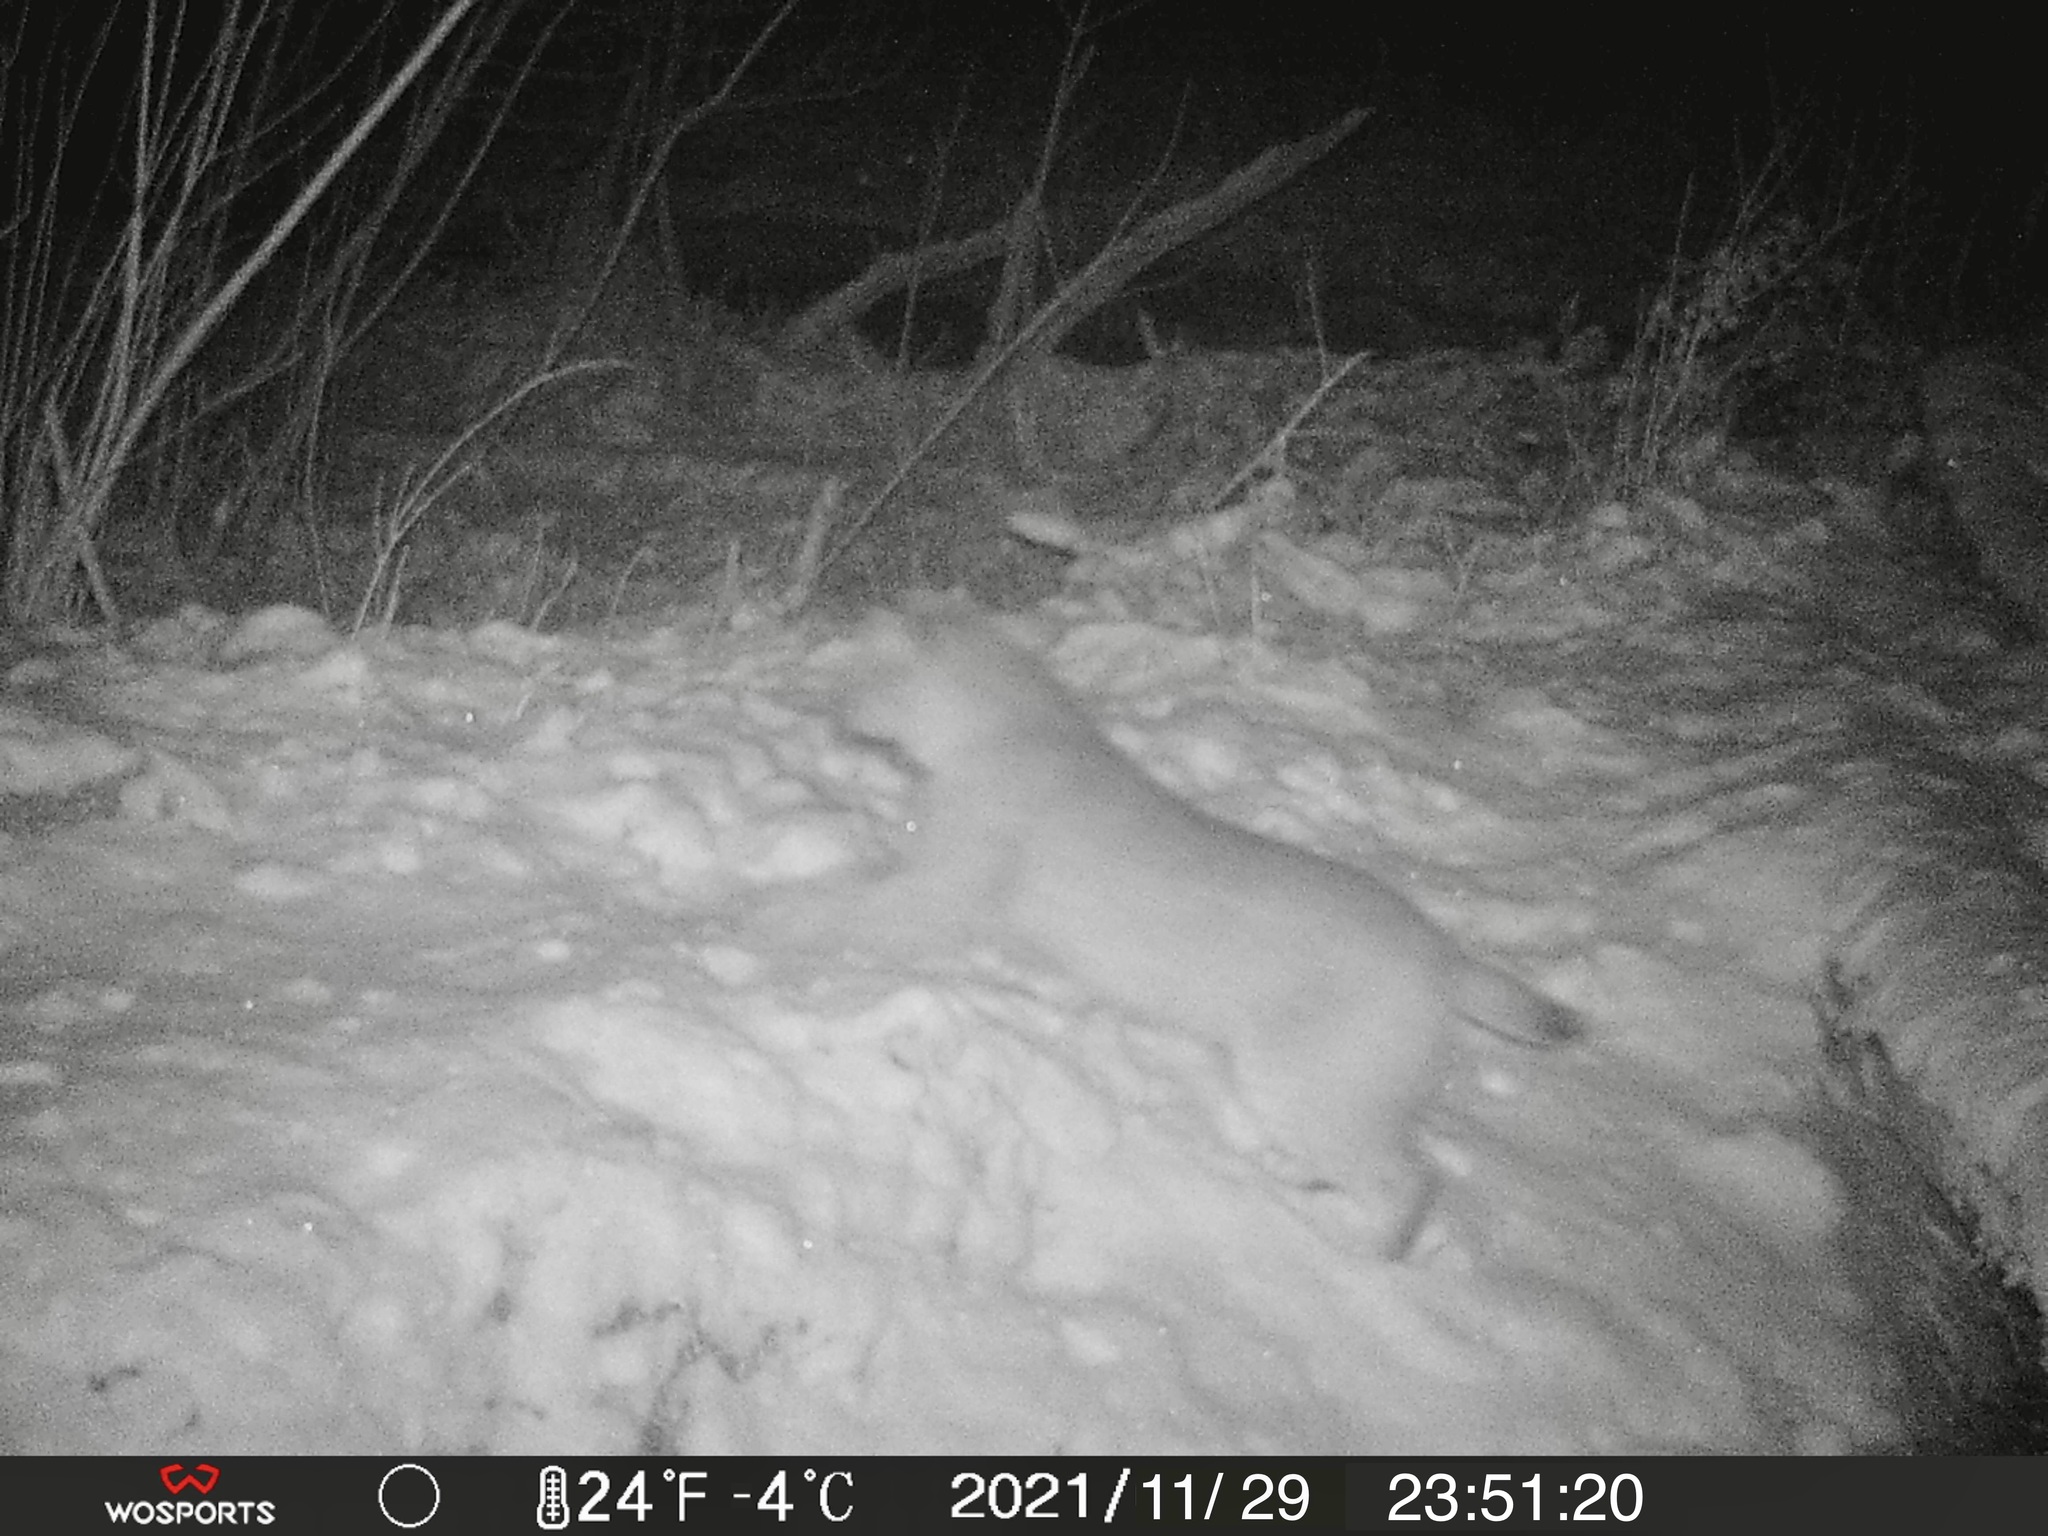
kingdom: Animalia
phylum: Chordata
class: Mammalia
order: Carnivora
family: Felidae
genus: Lynx
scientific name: Lynx rufus
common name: Bobcat
